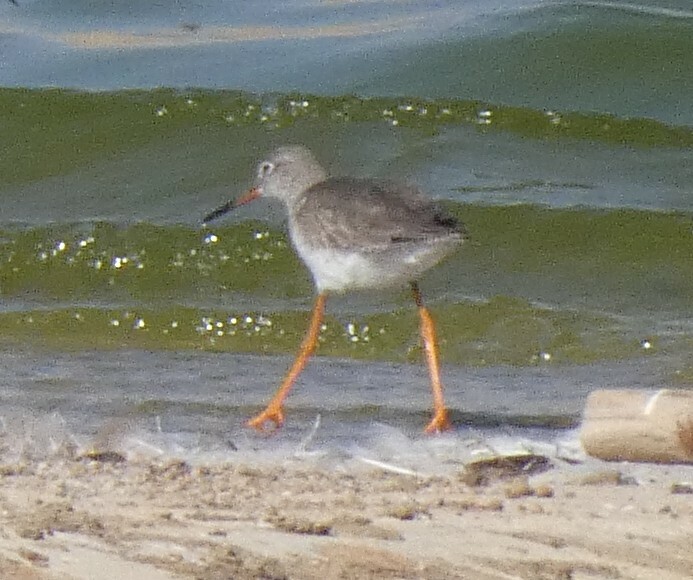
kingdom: Animalia
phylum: Chordata
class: Aves
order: Charadriiformes
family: Scolopacidae
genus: Tringa
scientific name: Tringa totanus
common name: Common redshank
